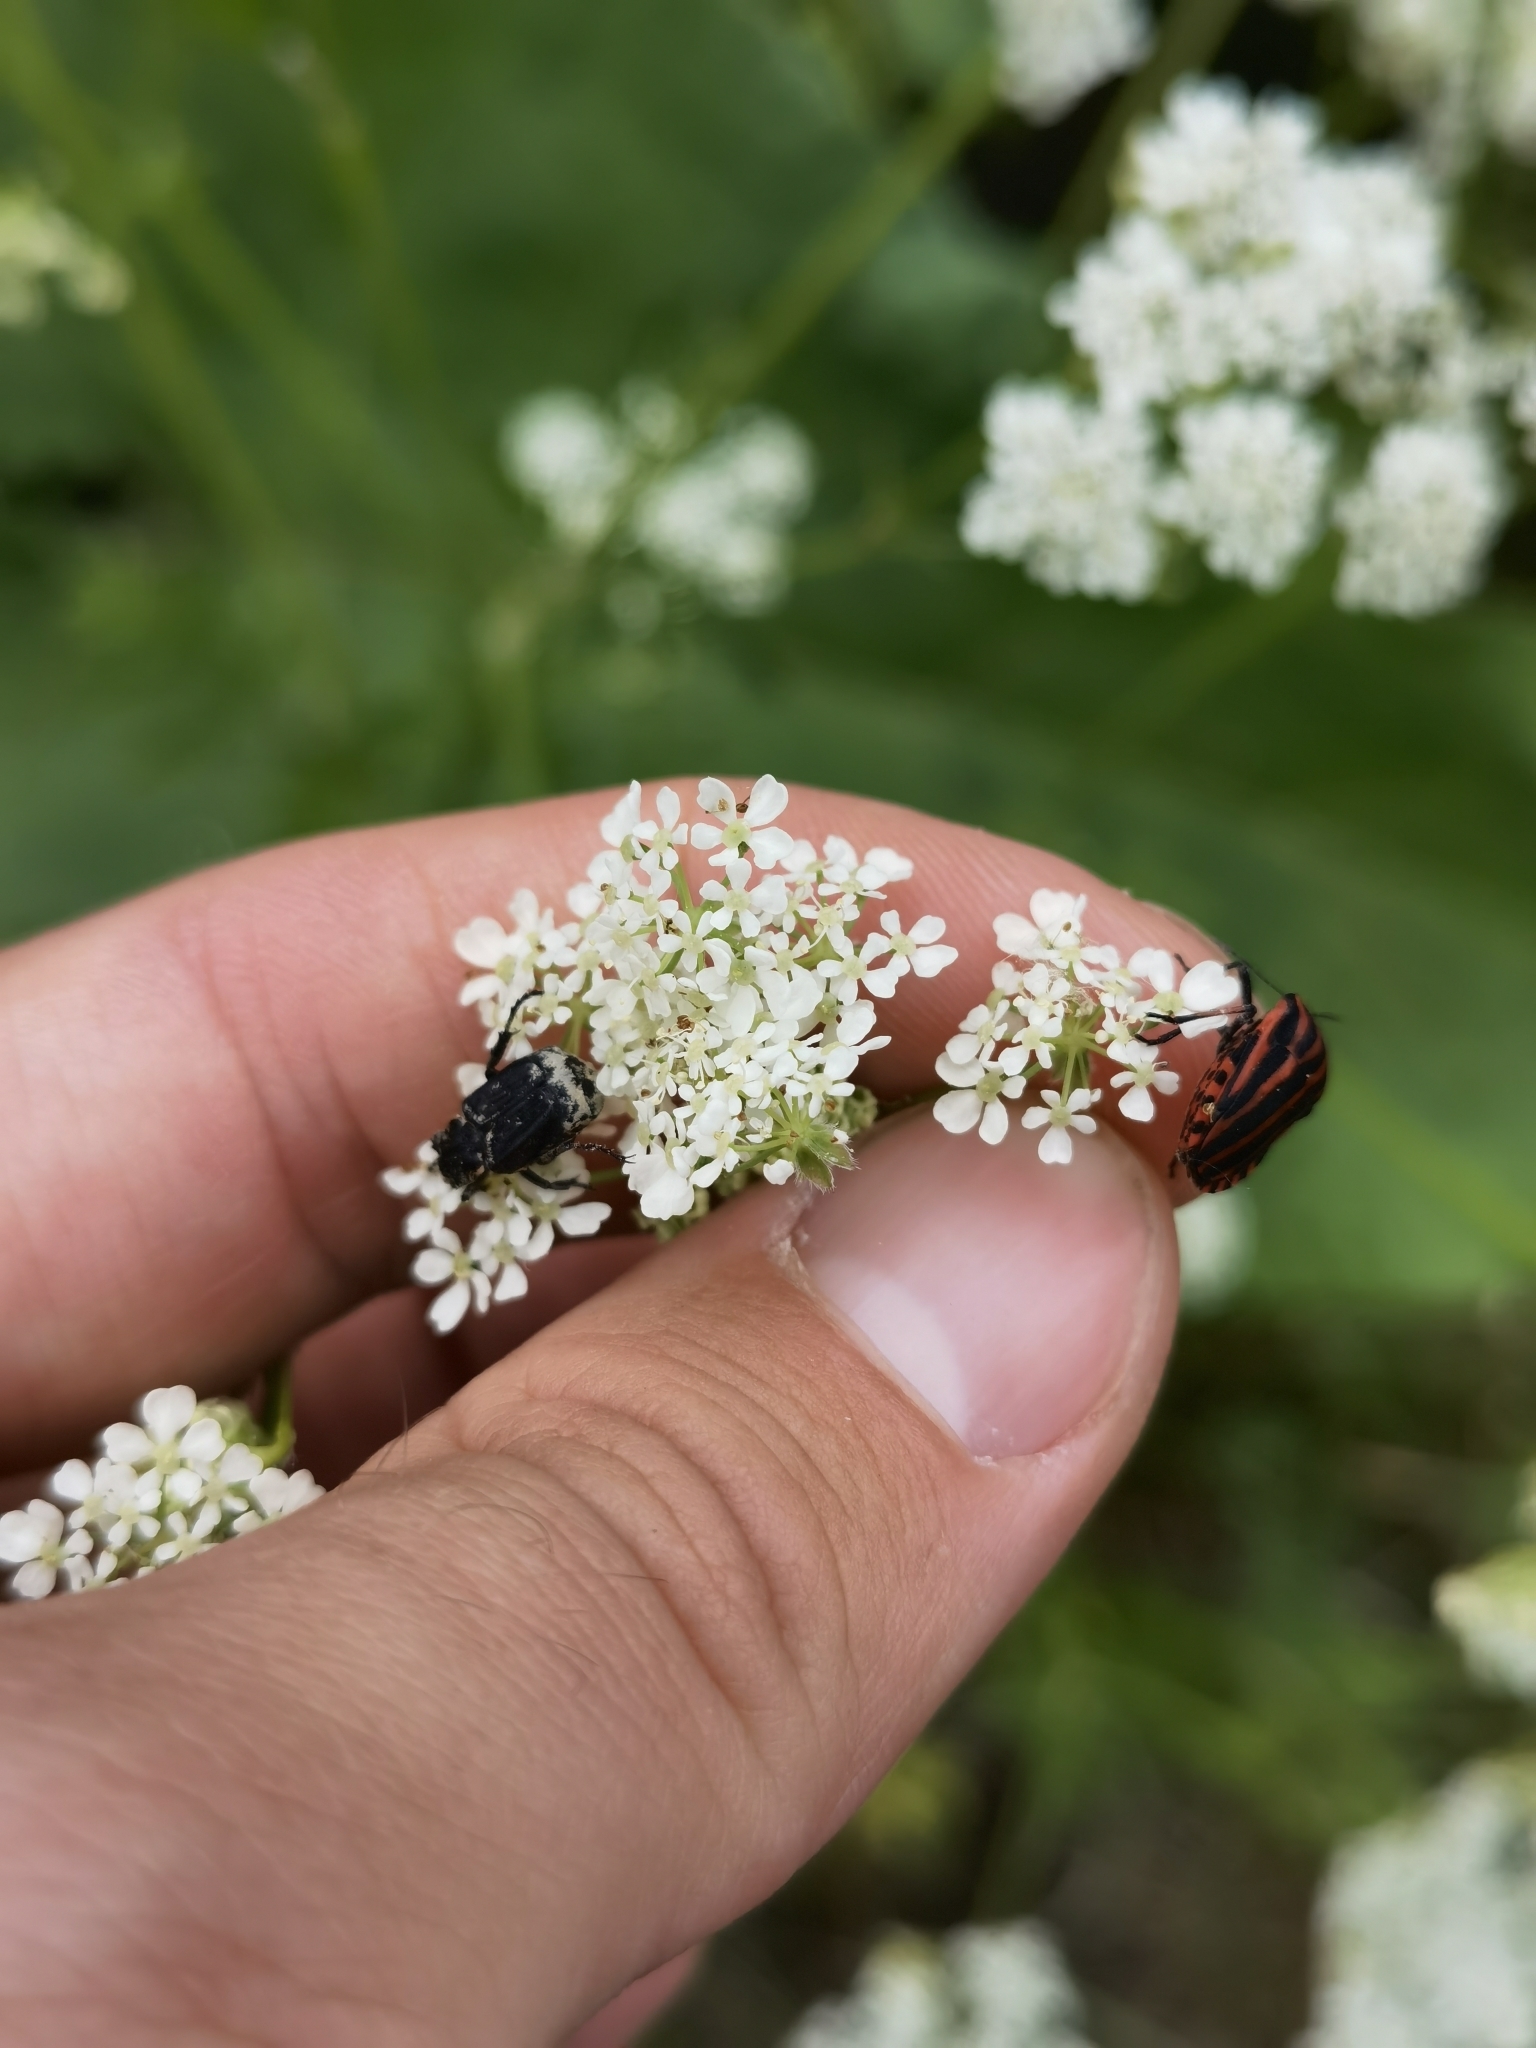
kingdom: Animalia
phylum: Arthropoda
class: Insecta
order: Coleoptera
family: Scarabaeidae
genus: Valgus
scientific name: Valgus hemipterus
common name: Bug flower chafer
